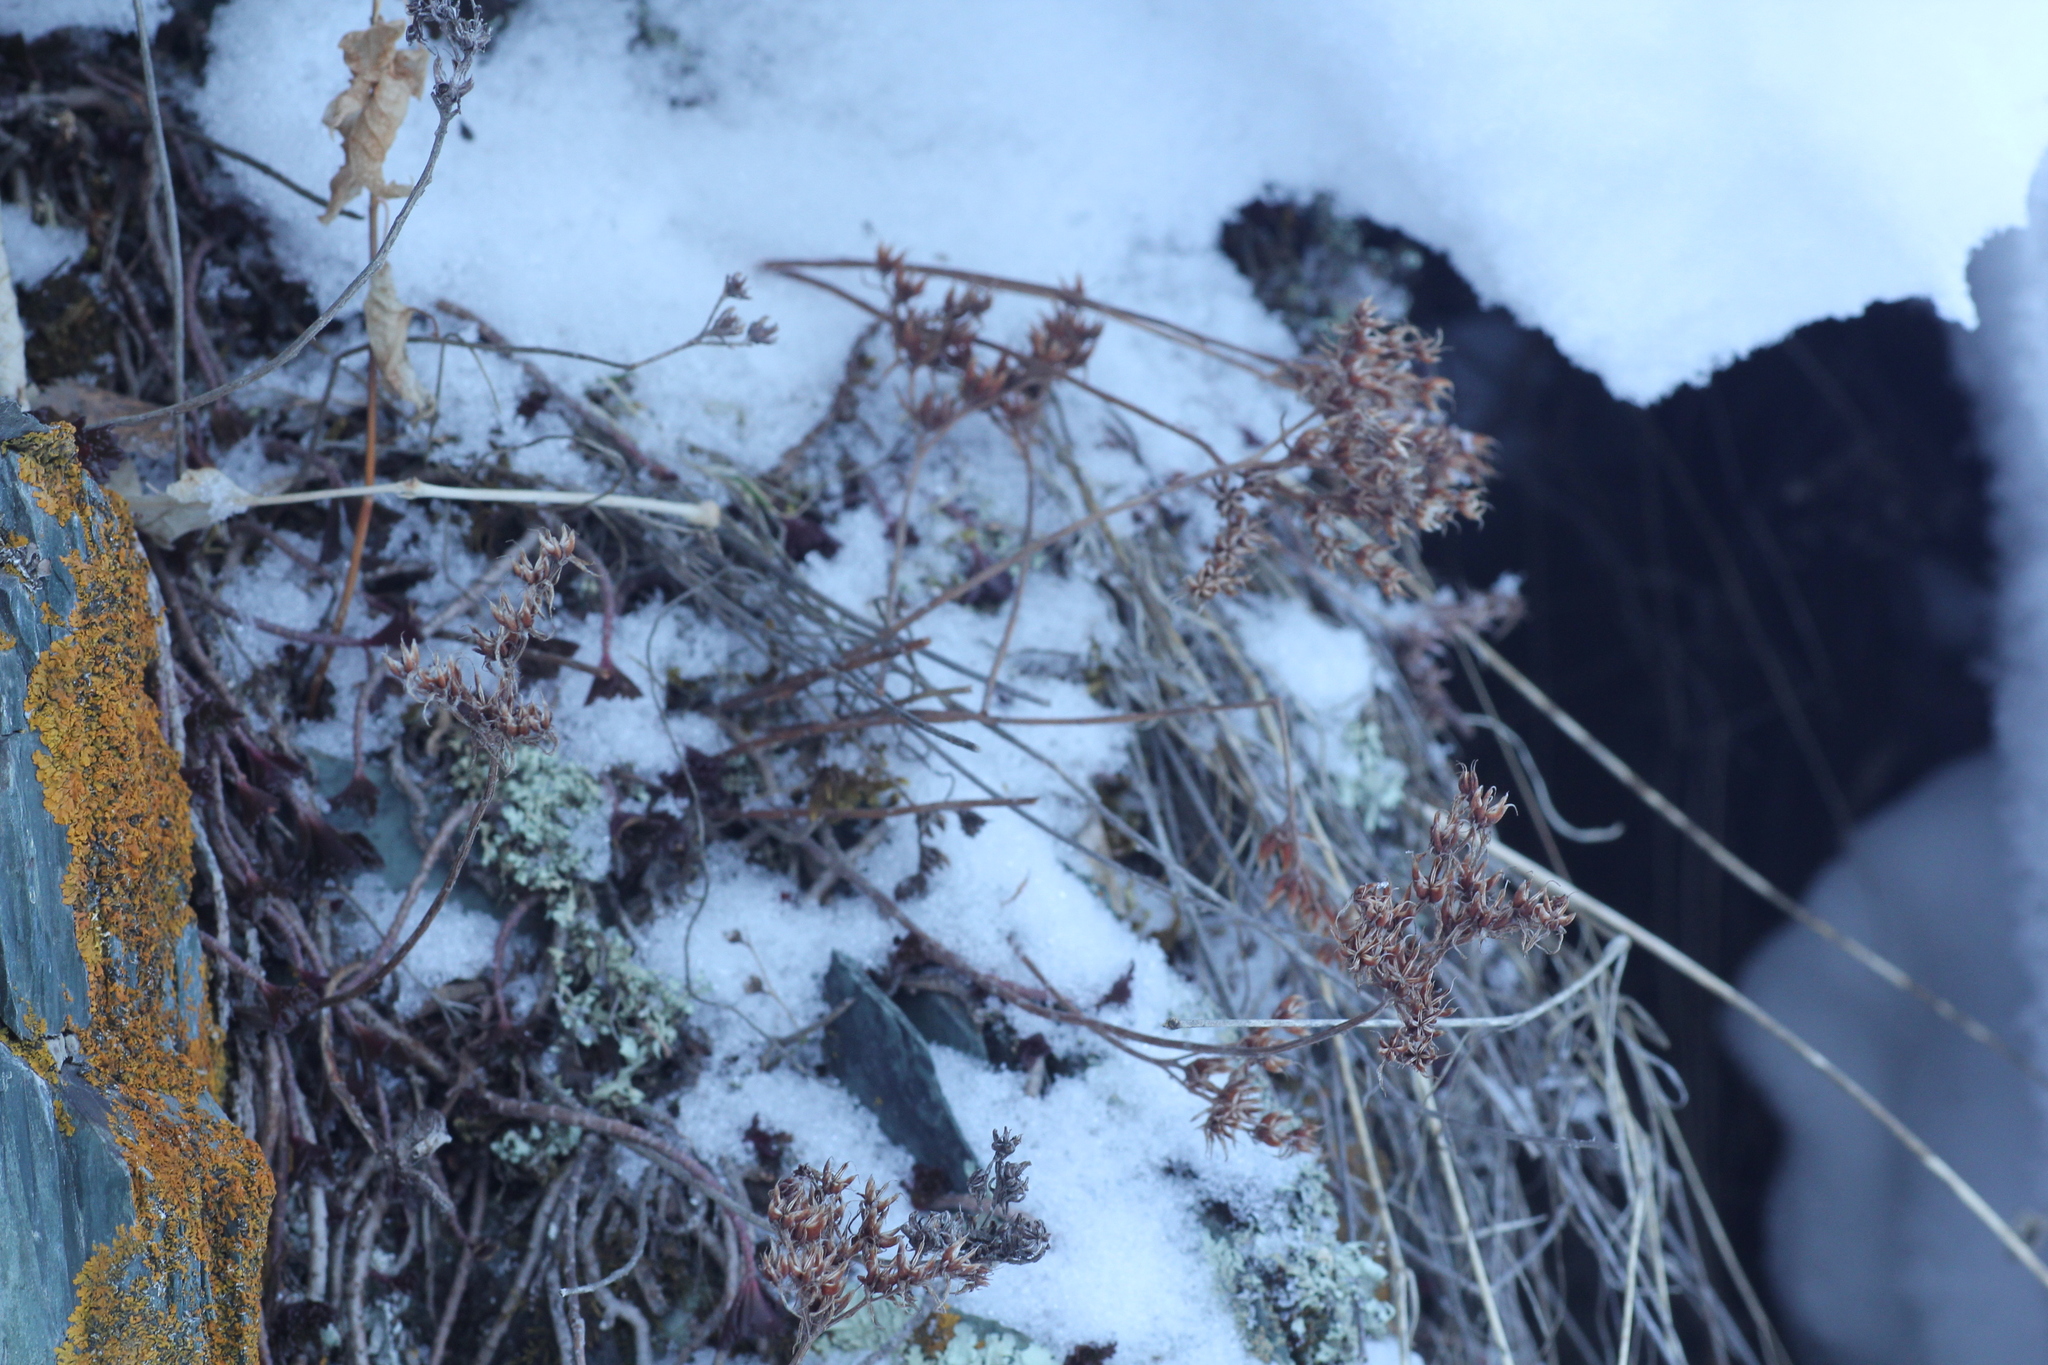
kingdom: Plantae
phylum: Tracheophyta
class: Magnoliopsida
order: Saxifragales
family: Crassulaceae
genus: Phedimus
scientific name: Phedimus hybridus
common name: Hybrid stonecrop
